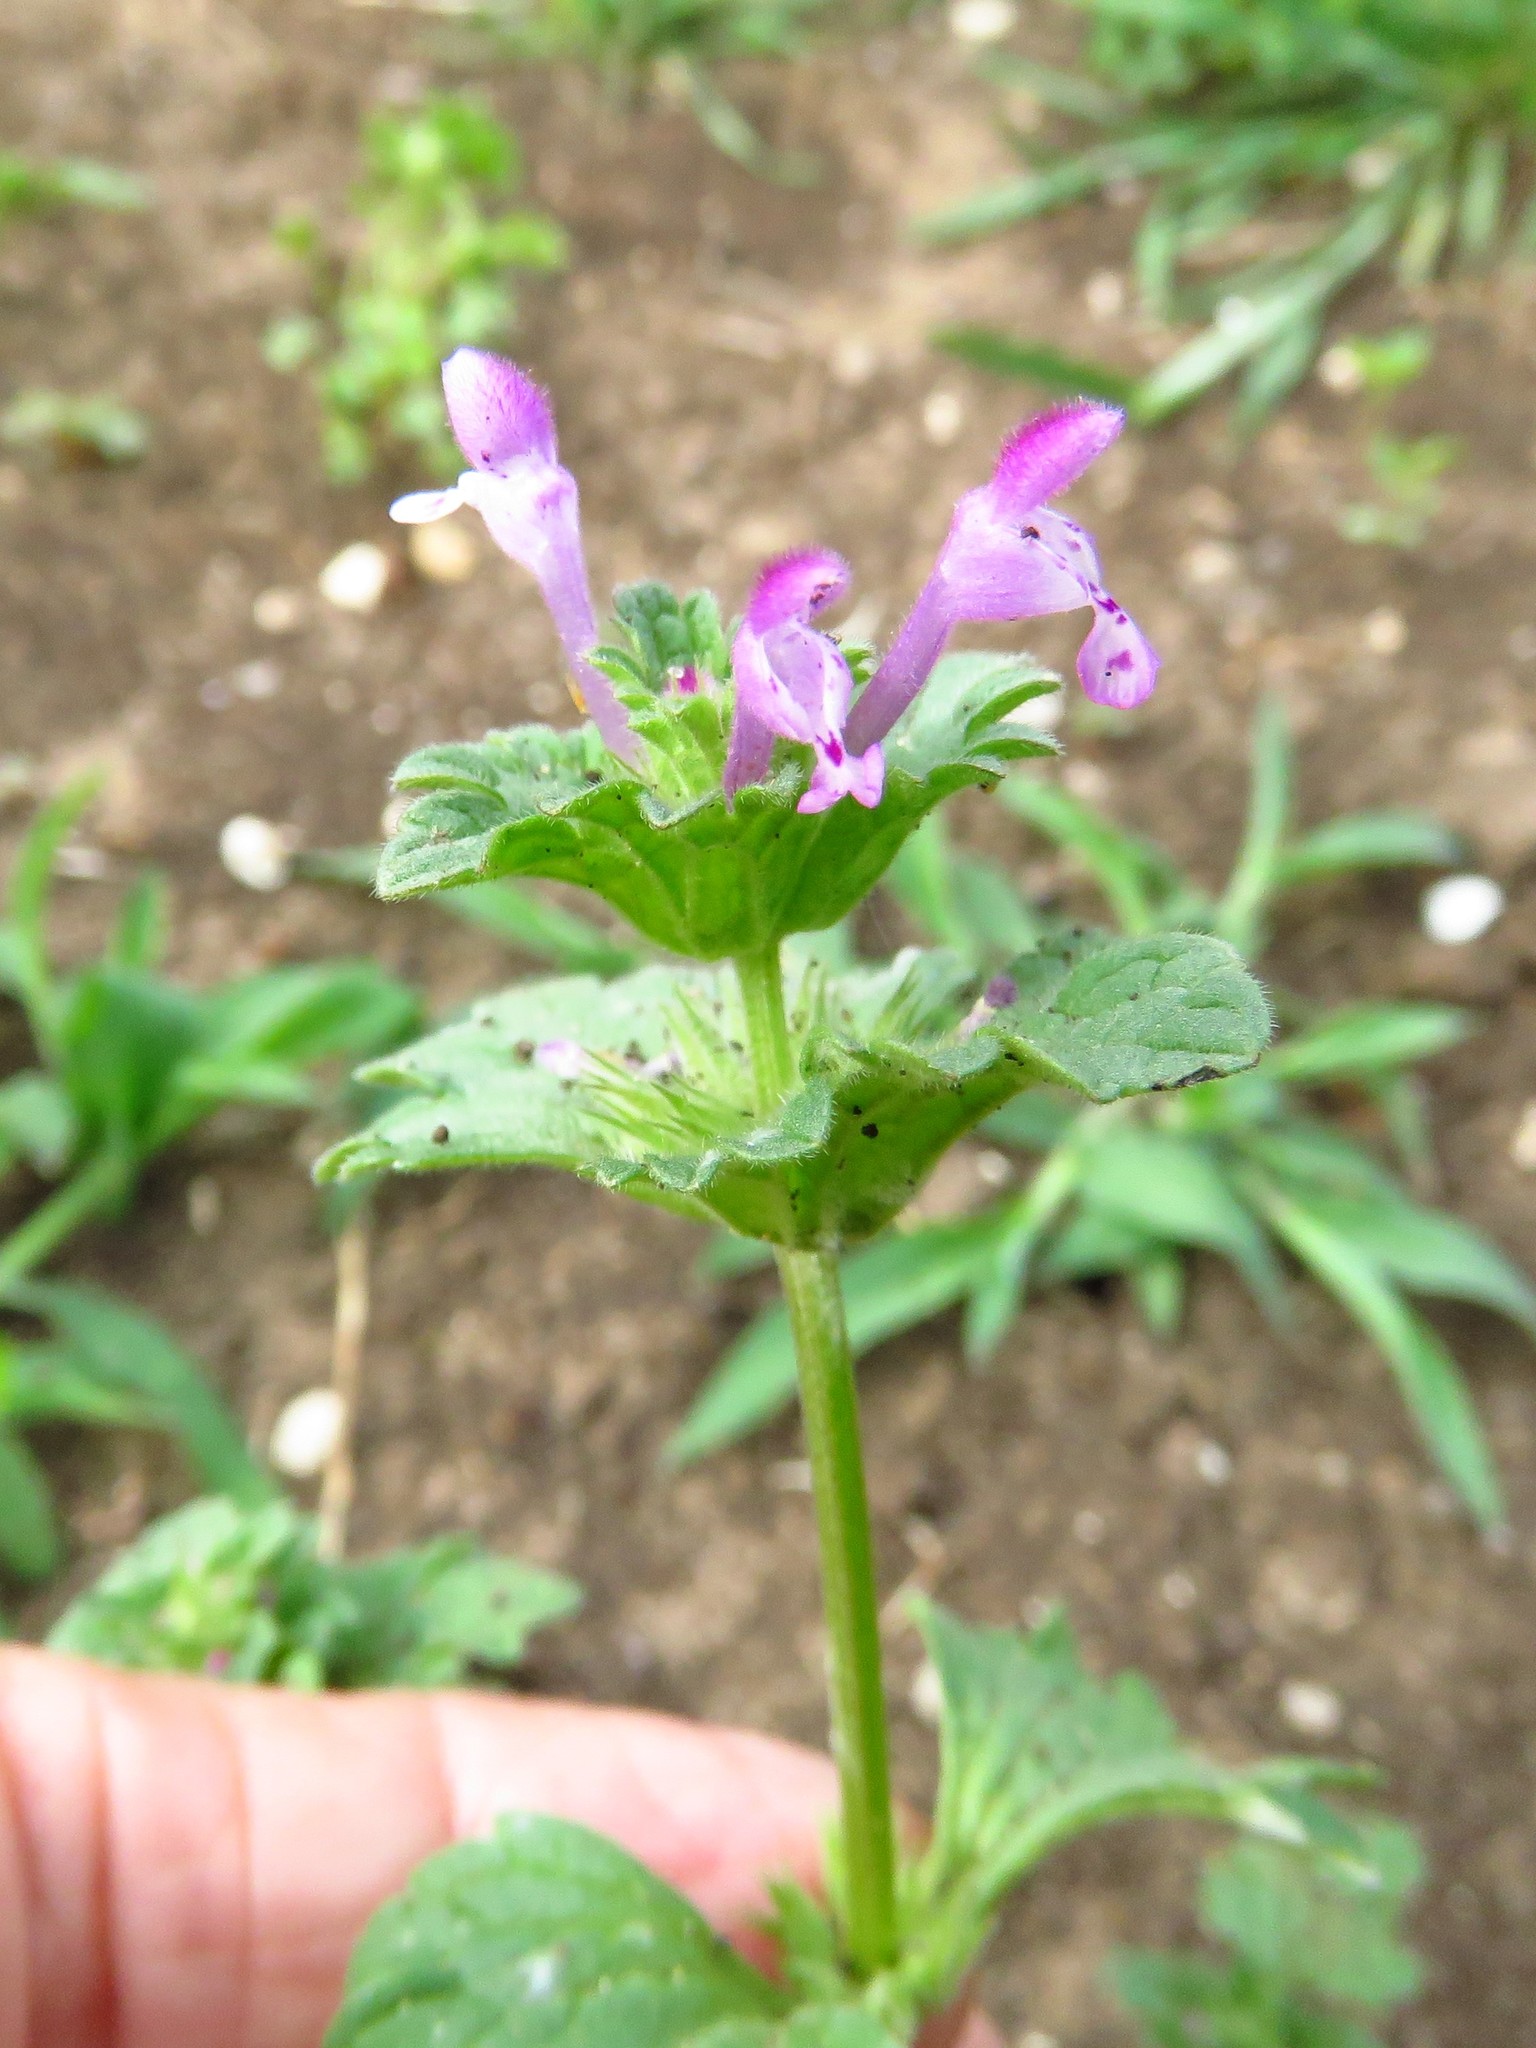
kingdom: Plantae
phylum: Tracheophyta
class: Magnoliopsida
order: Lamiales
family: Lamiaceae
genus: Lamium
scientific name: Lamium amplexicaule
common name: Henbit dead-nettle
